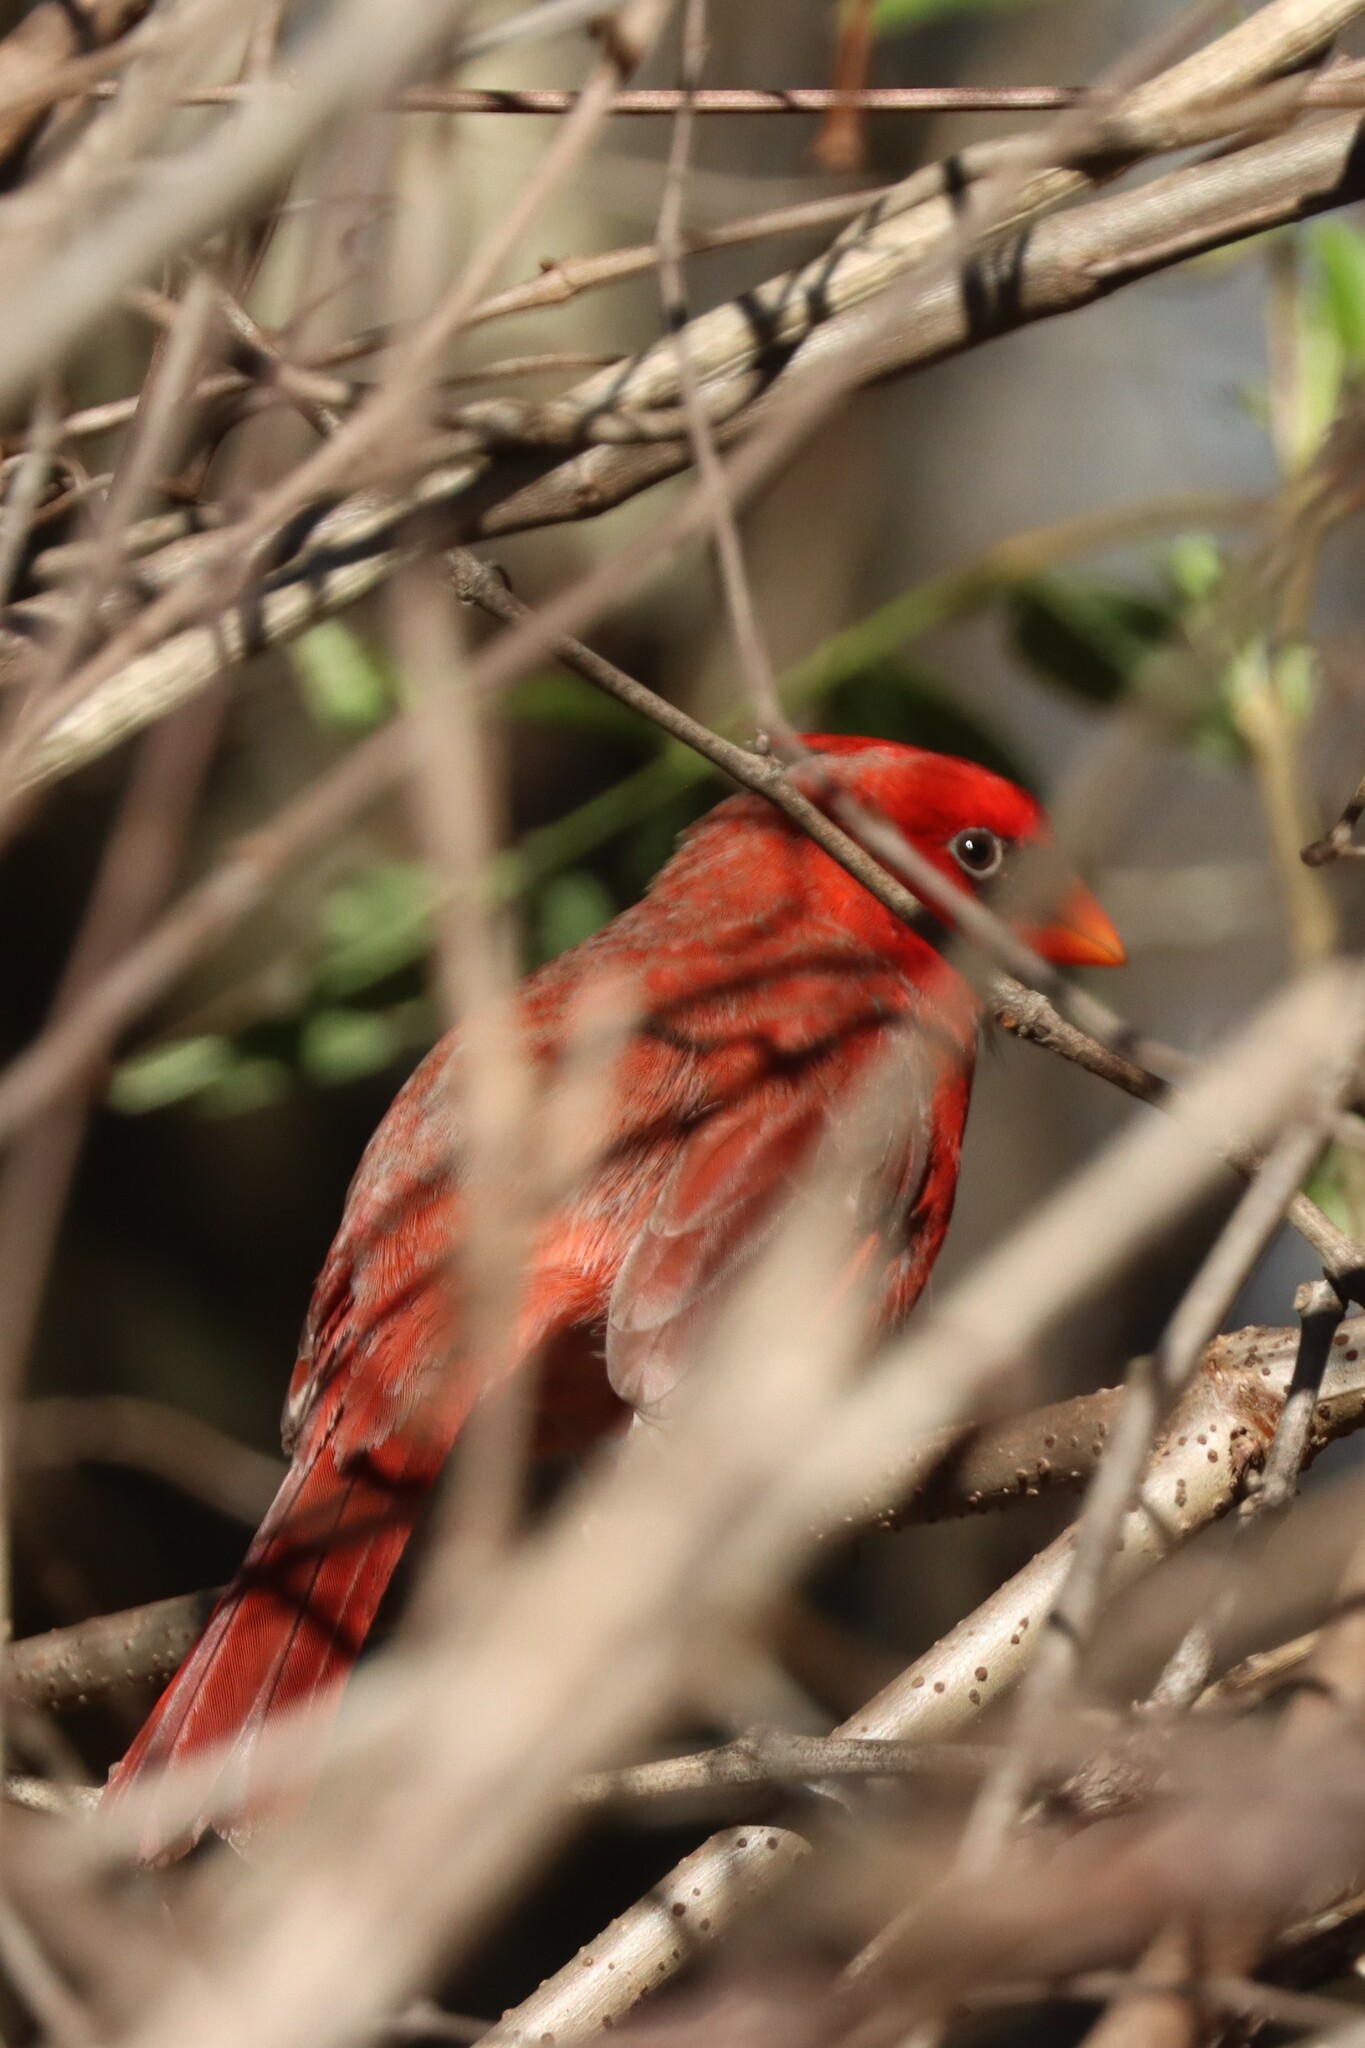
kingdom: Animalia
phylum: Chordata
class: Aves
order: Passeriformes
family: Cardinalidae
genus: Cardinalis
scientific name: Cardinalis cardinalis
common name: Northern cardinal
